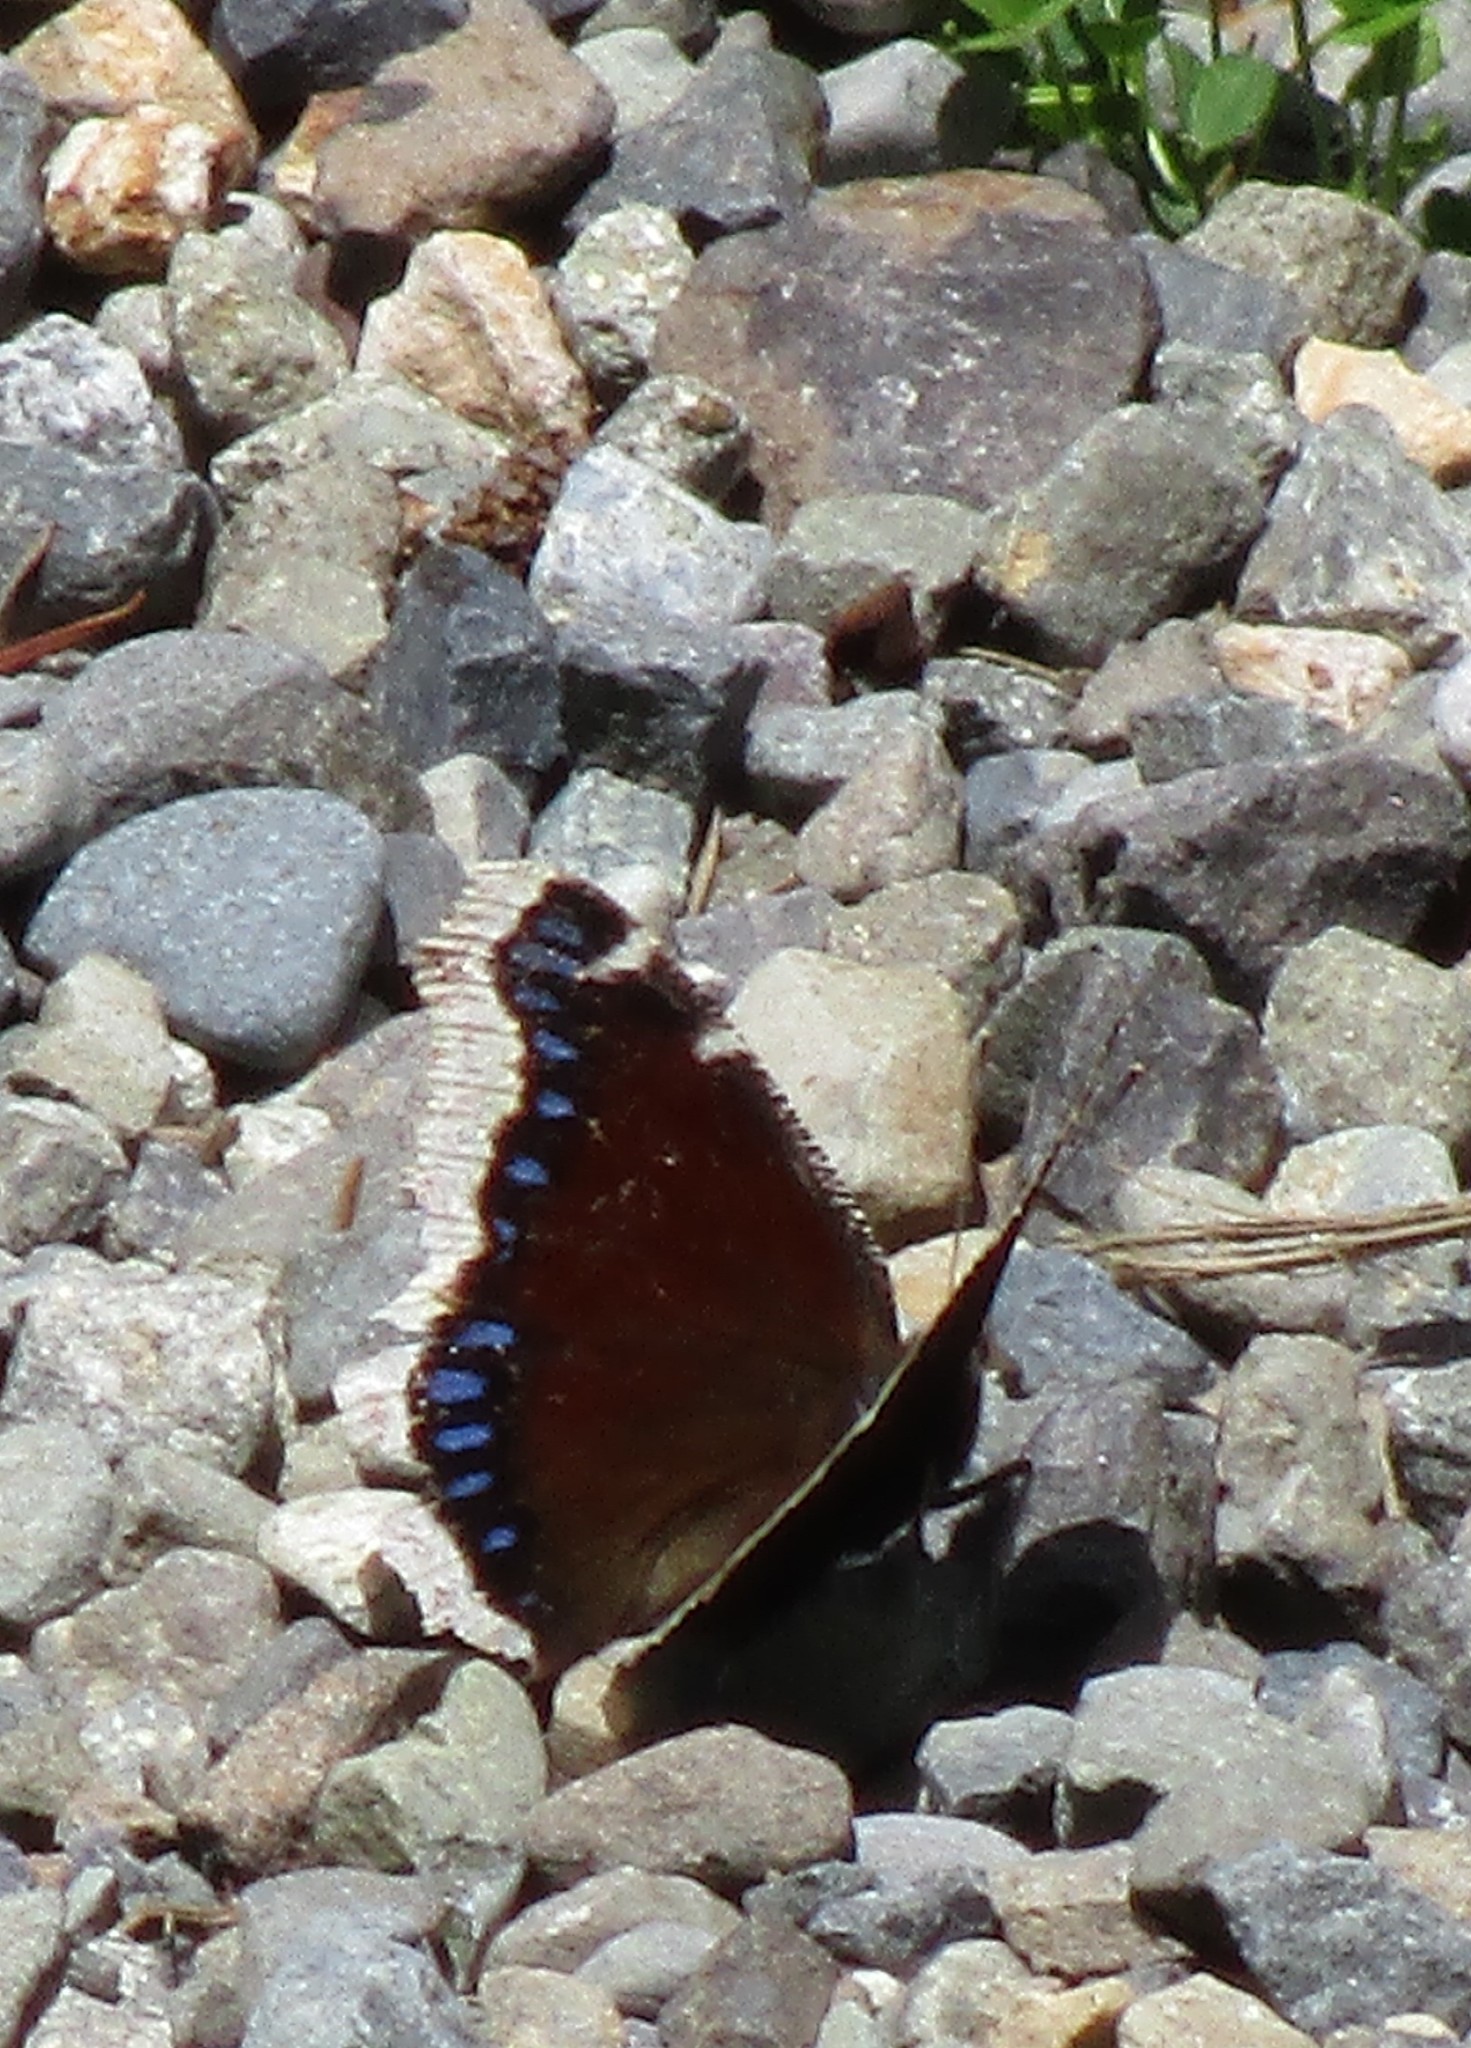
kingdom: Animalia
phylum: Arthropoda
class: Insecta
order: Lepidoptera
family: Nymphalidae
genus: Nymphalis
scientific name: Nymphalis antiopa
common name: Camberwell beauty
